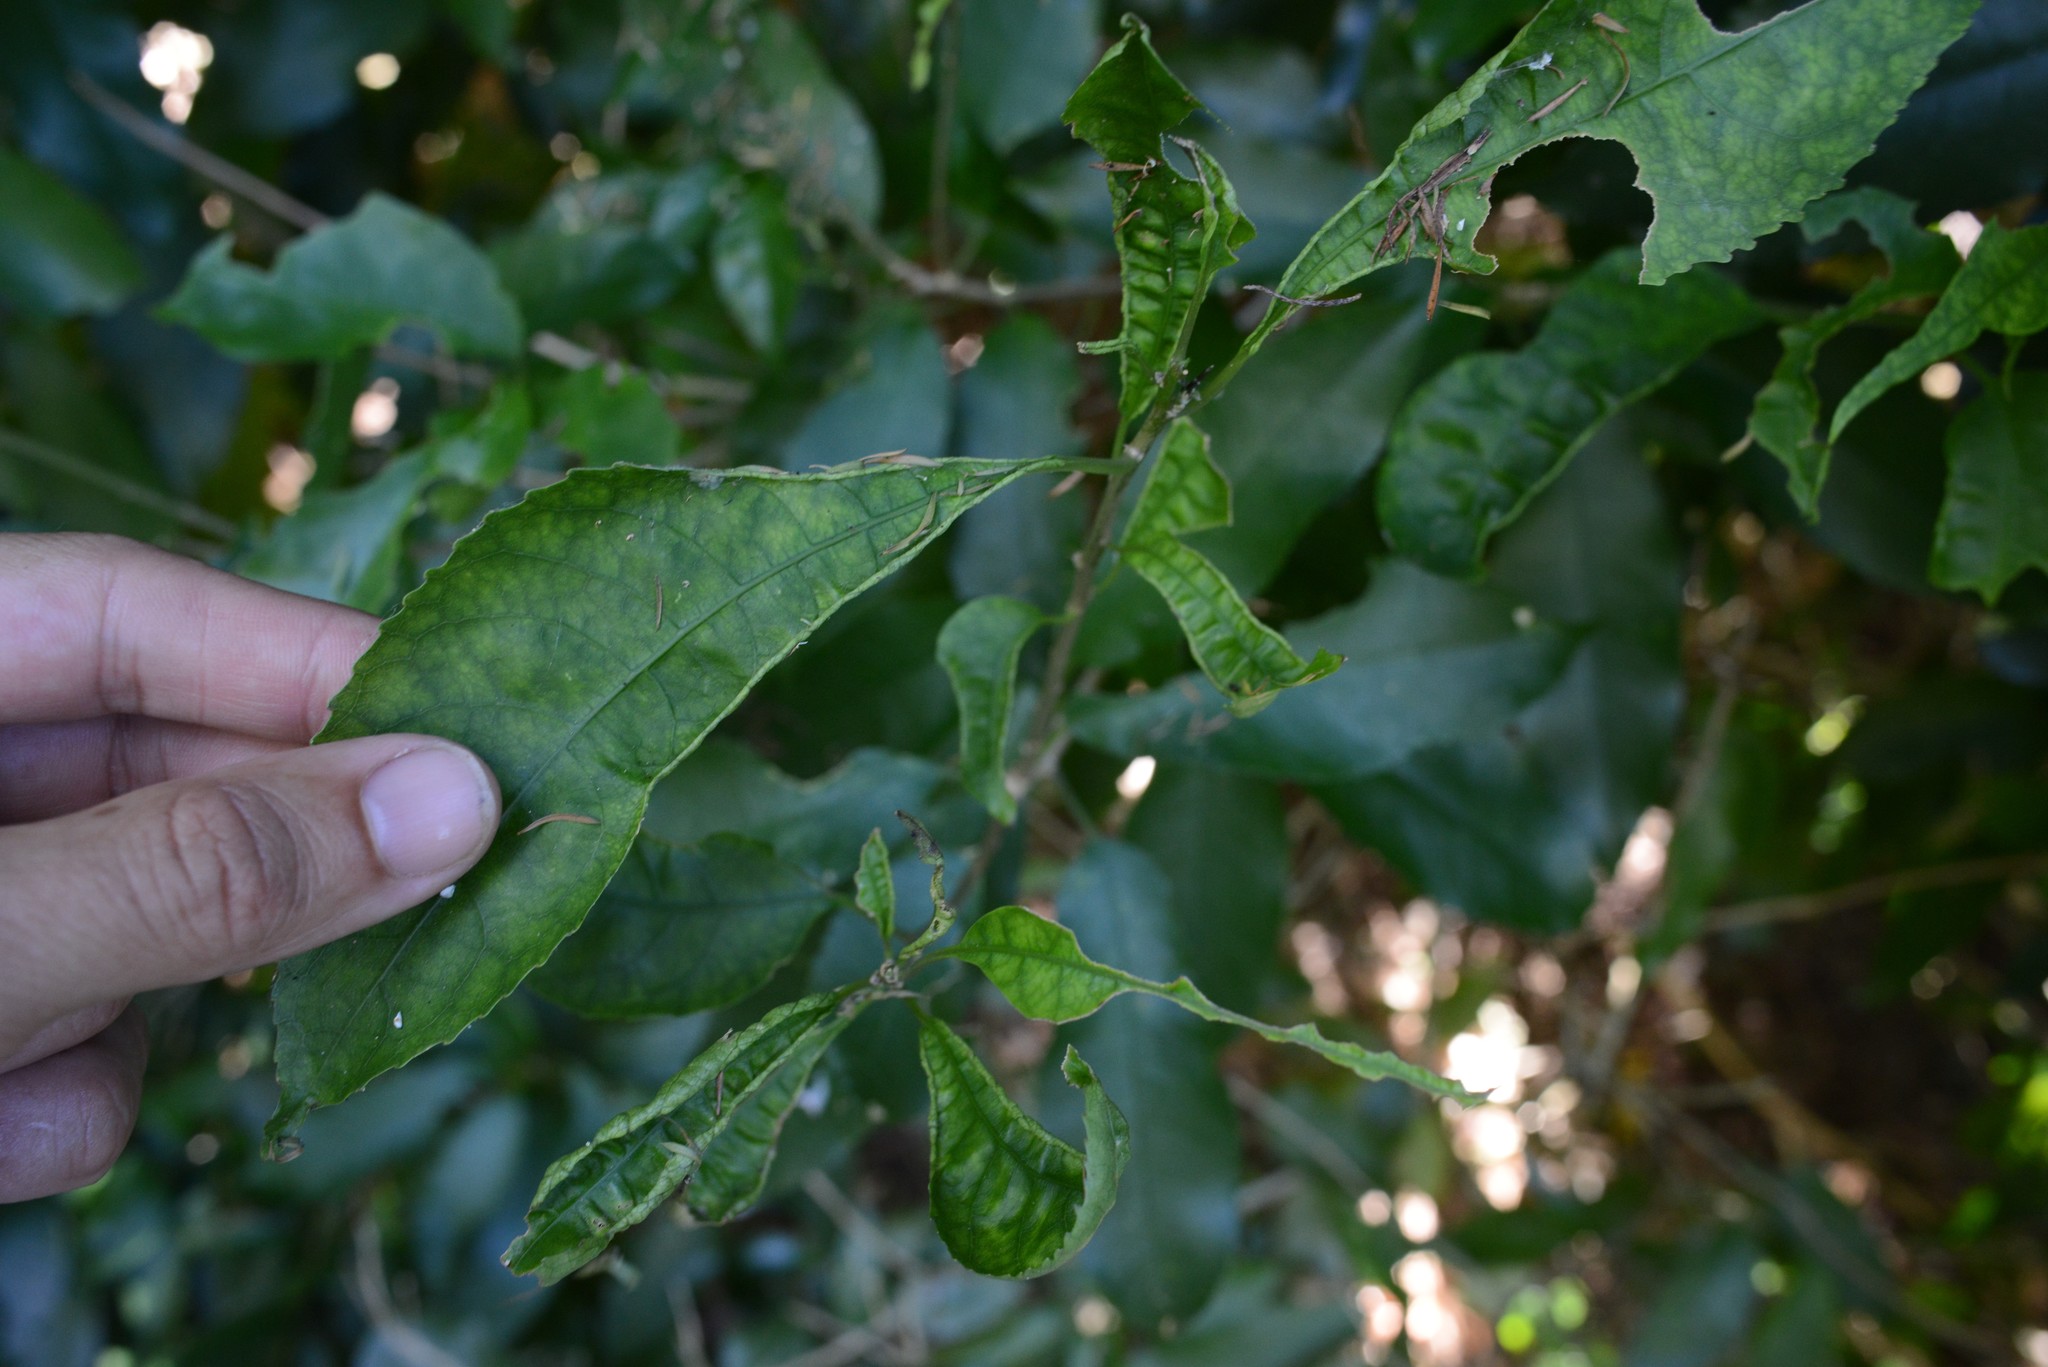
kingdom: Animalia
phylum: Arthropoda
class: Arachnida
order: Trombidiformes
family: Eriophyidae
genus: Aceria
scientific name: Aceria
